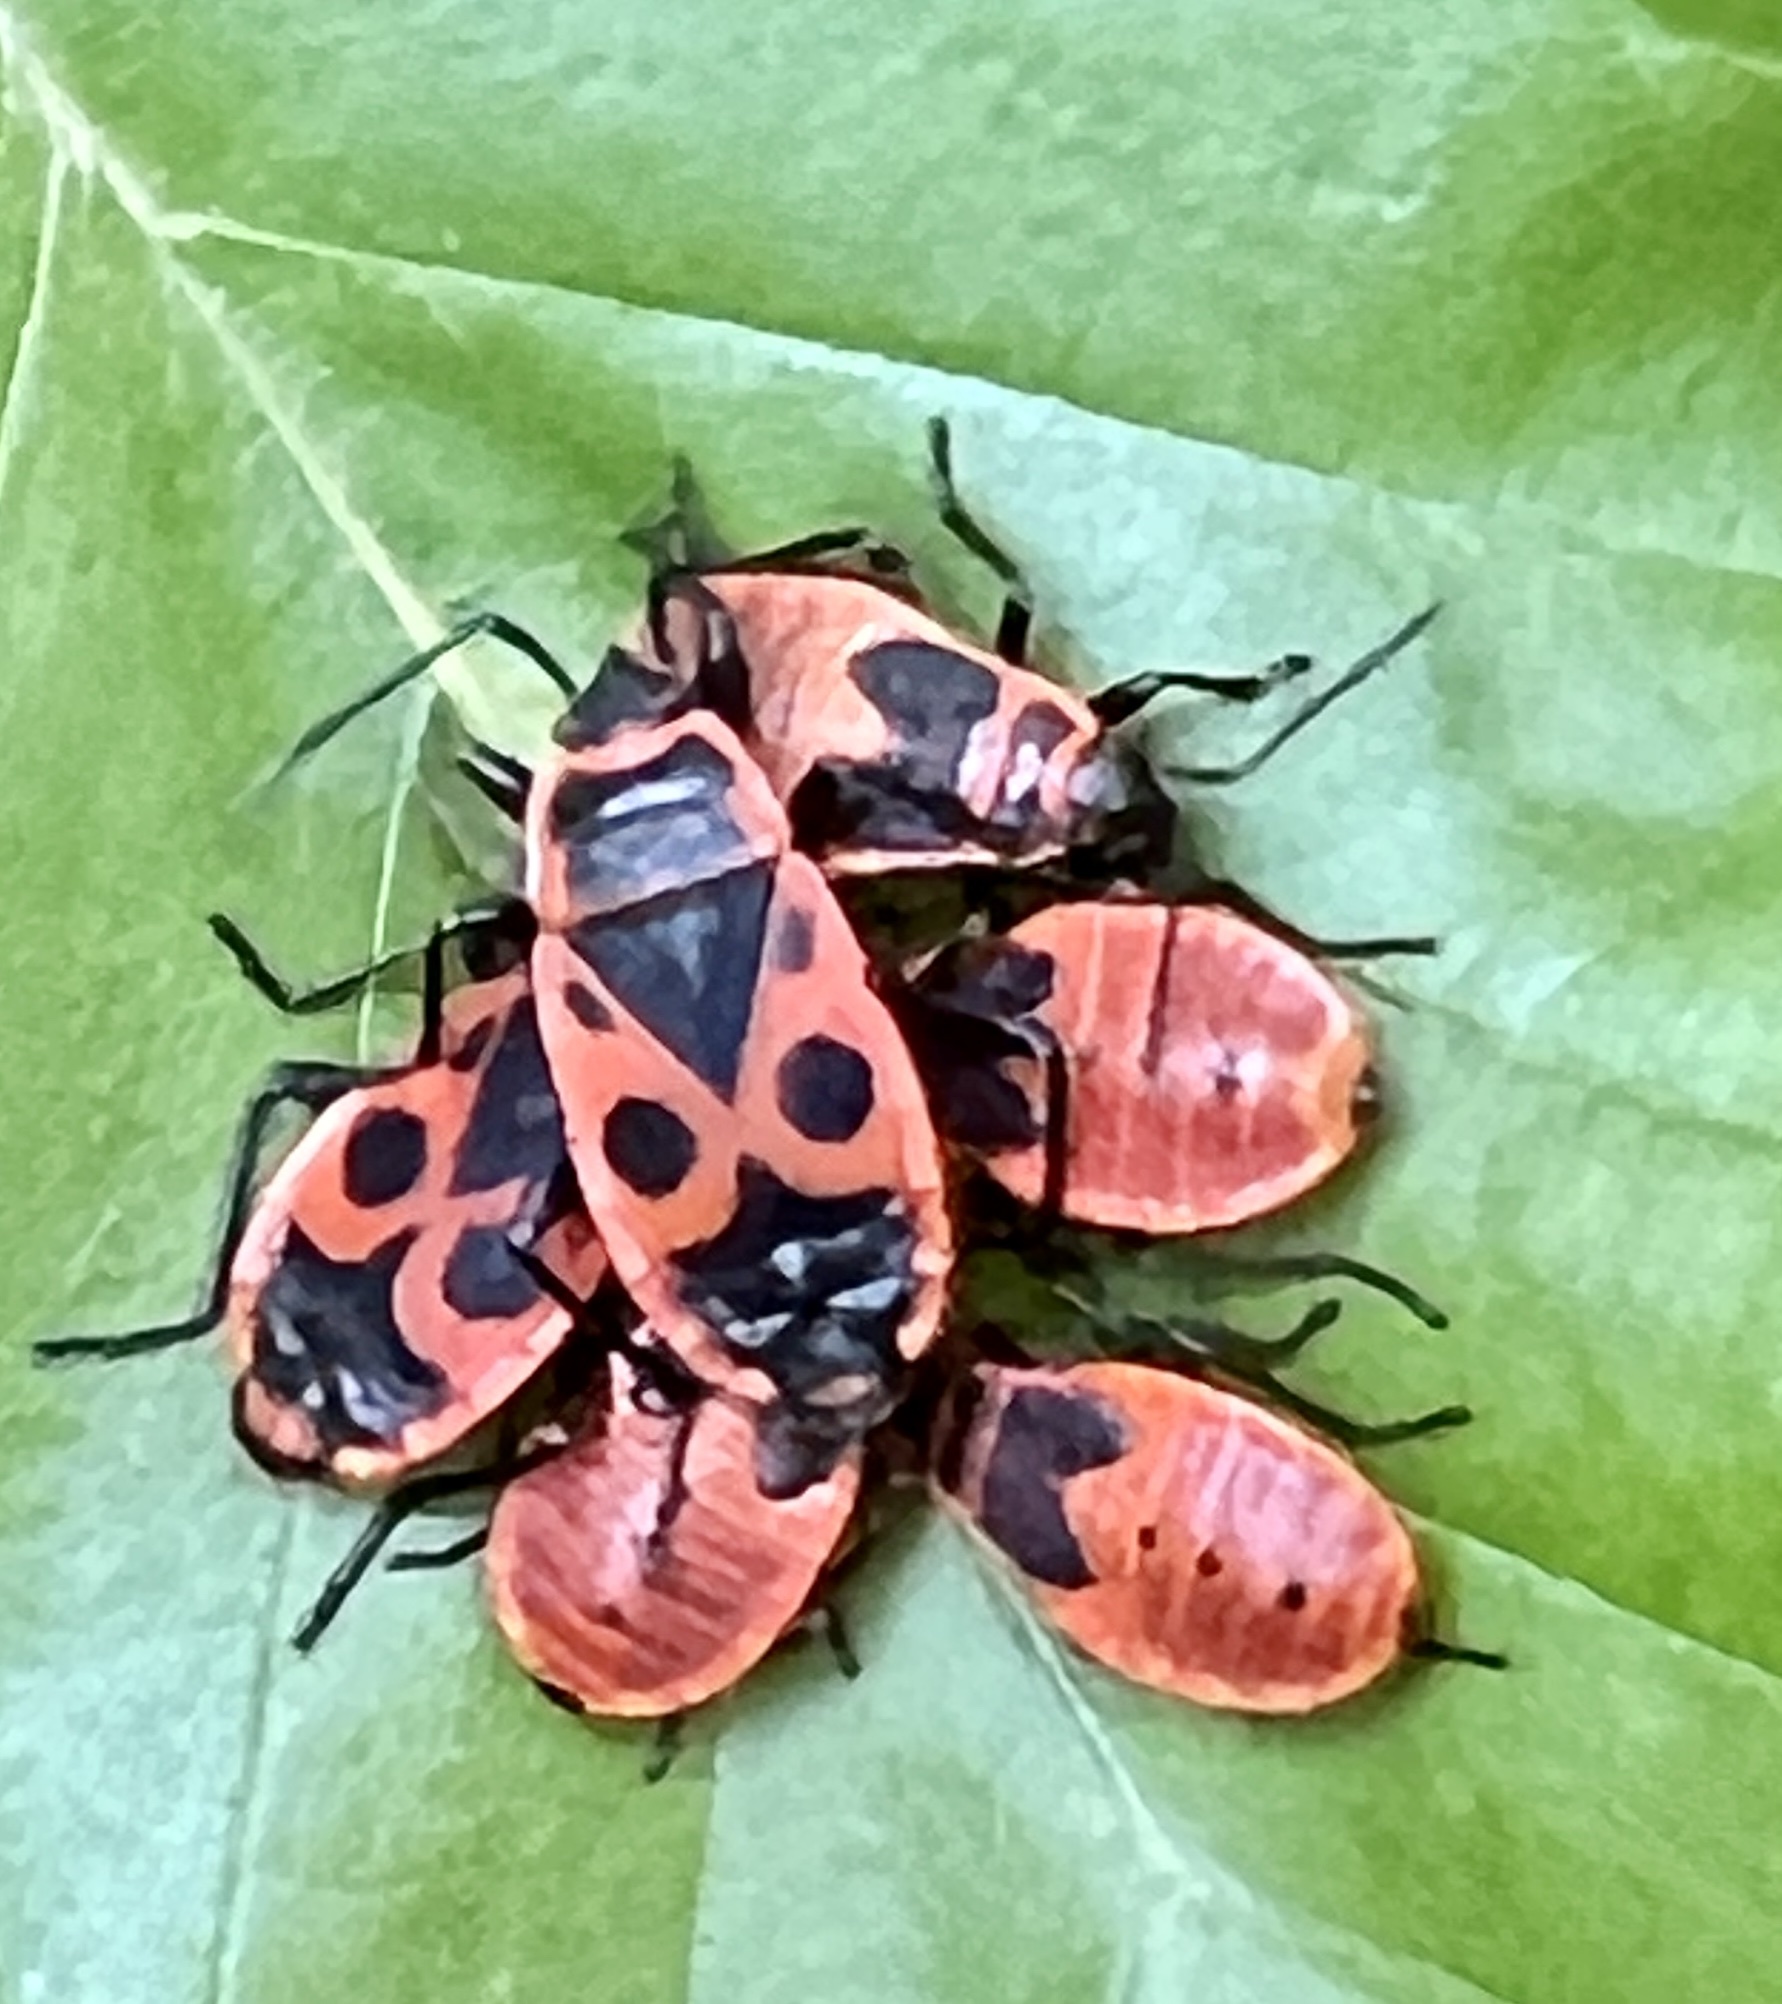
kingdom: Animalia
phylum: Arthropoda
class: Insecta
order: Hemiptera
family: Pyrrhocoridae
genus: Pyrrhocoris
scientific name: Pyrrhocoris apterus
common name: Firebug
